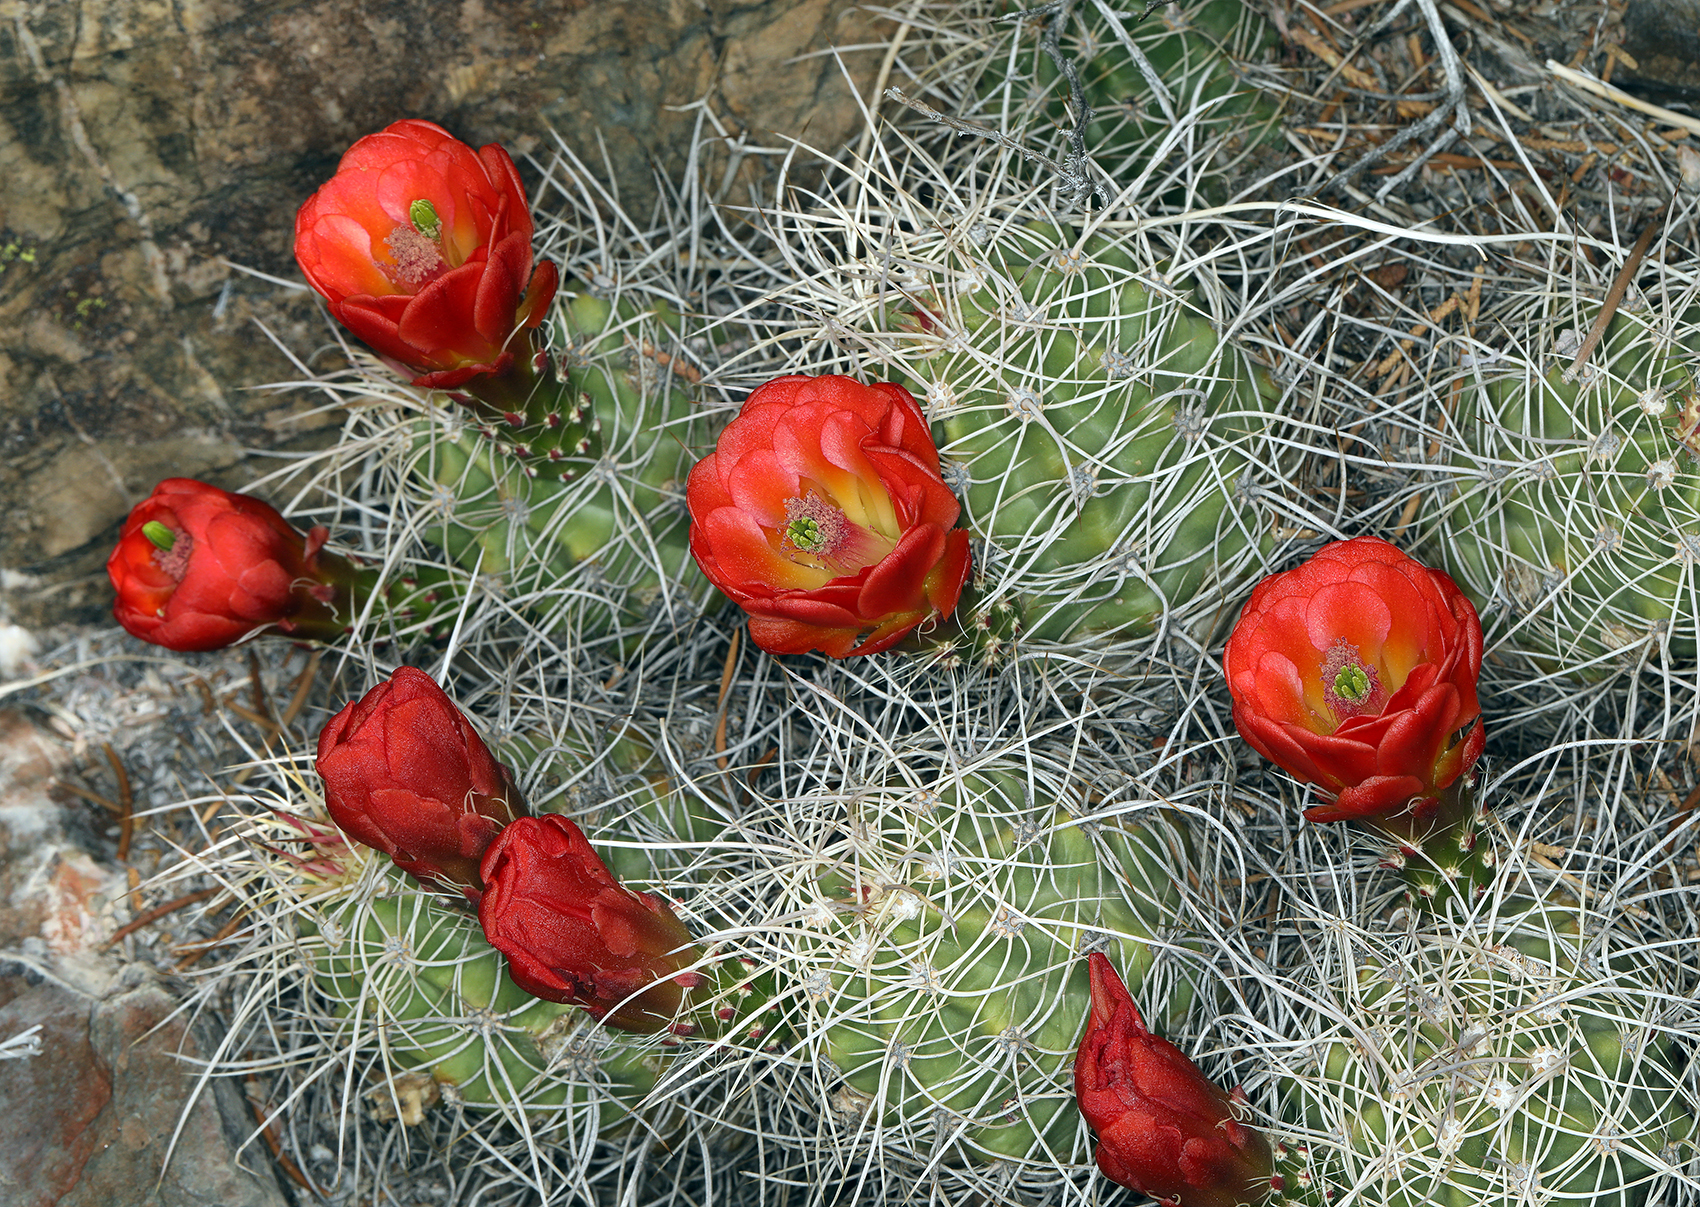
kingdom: Plantae
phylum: Tracheophyta
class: Magnoliopsida
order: Caryophyllales
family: Cactaceae
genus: Echinocereus
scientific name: Echinocereus triglochidiatus
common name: Claretcup hedgehog
